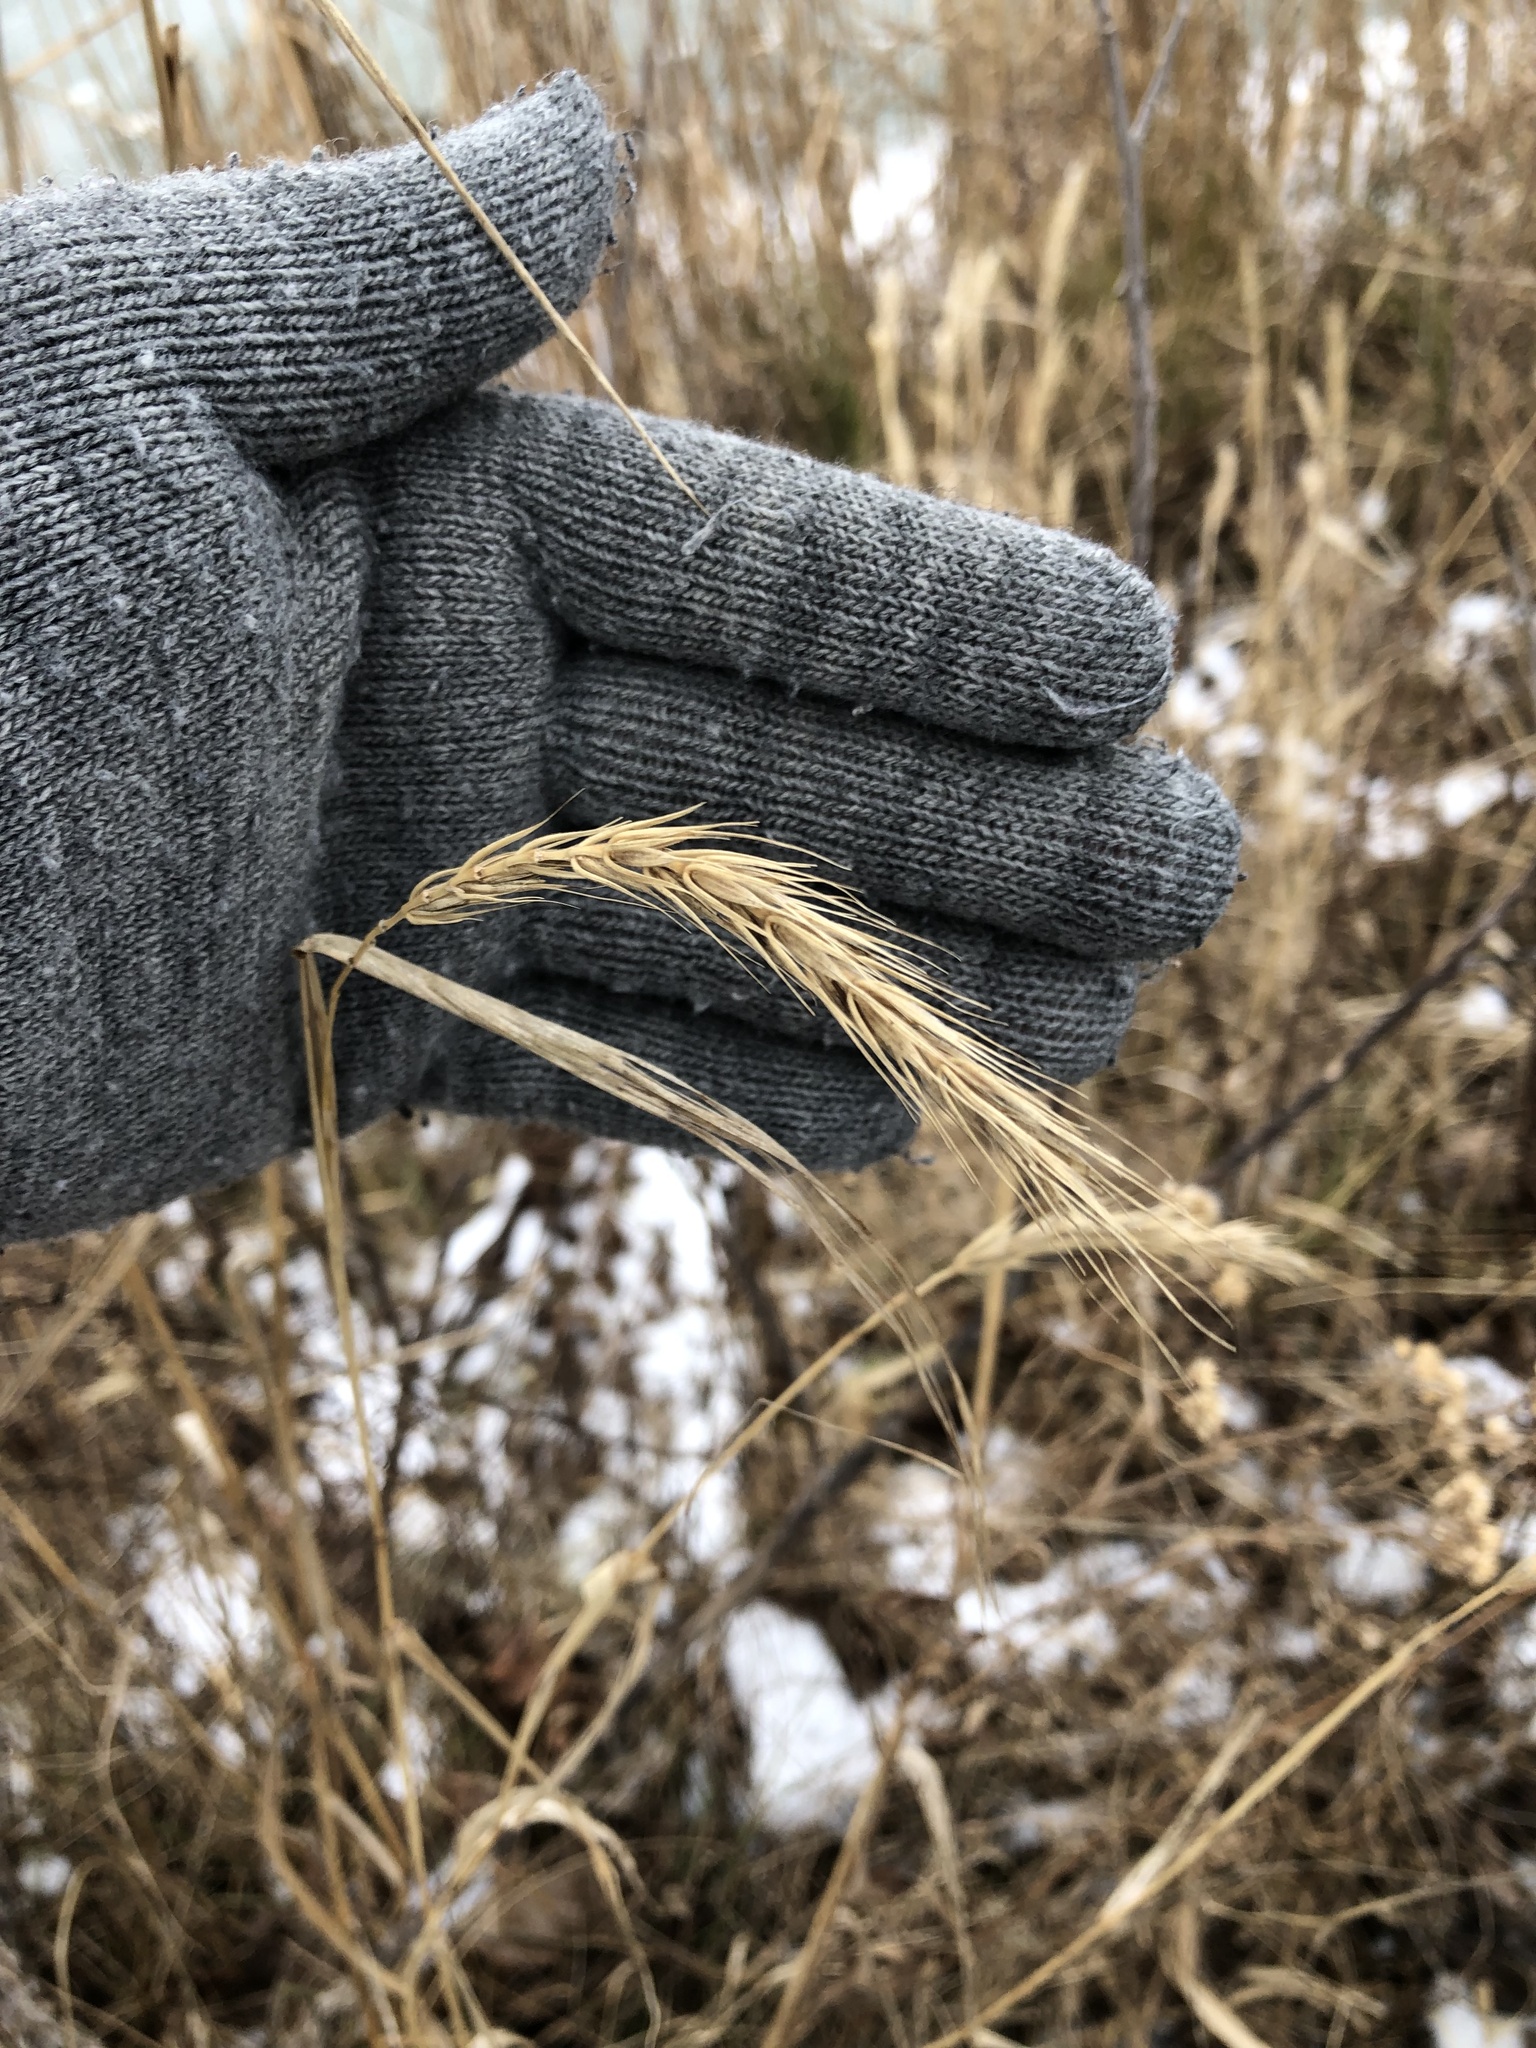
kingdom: Plantae
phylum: Tracheophyta
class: Liliopsida
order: Poales
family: Poaceae
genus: Elymus
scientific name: Elymus virginicus
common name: Common eastern wildrye
